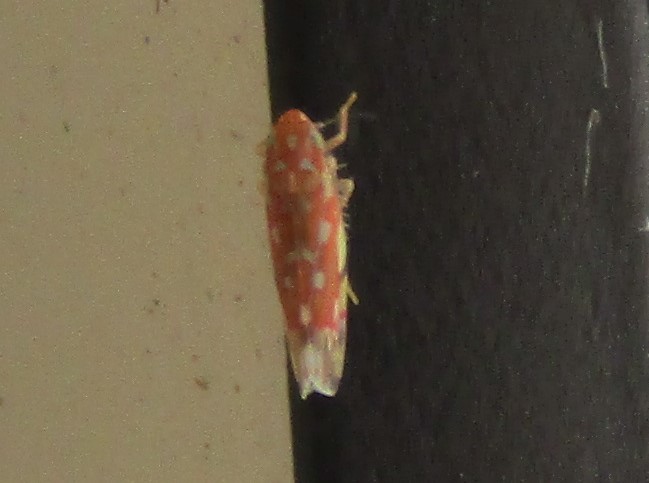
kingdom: Animalia
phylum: Arthropoda
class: Insecta
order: Hemiptera
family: Cicadellidae
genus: Erythroneura
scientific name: Erythroneura rubra
